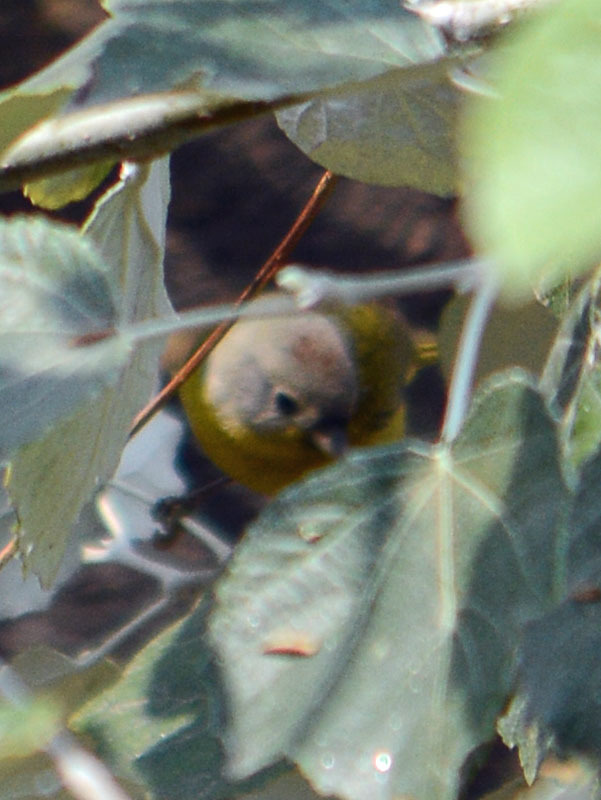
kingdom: Animalia
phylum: Chordata
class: Aves
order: Passeriformes
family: Parulidae
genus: Leiothlypis
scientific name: Leiothlypis ruficapilla
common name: Nashville warbler
